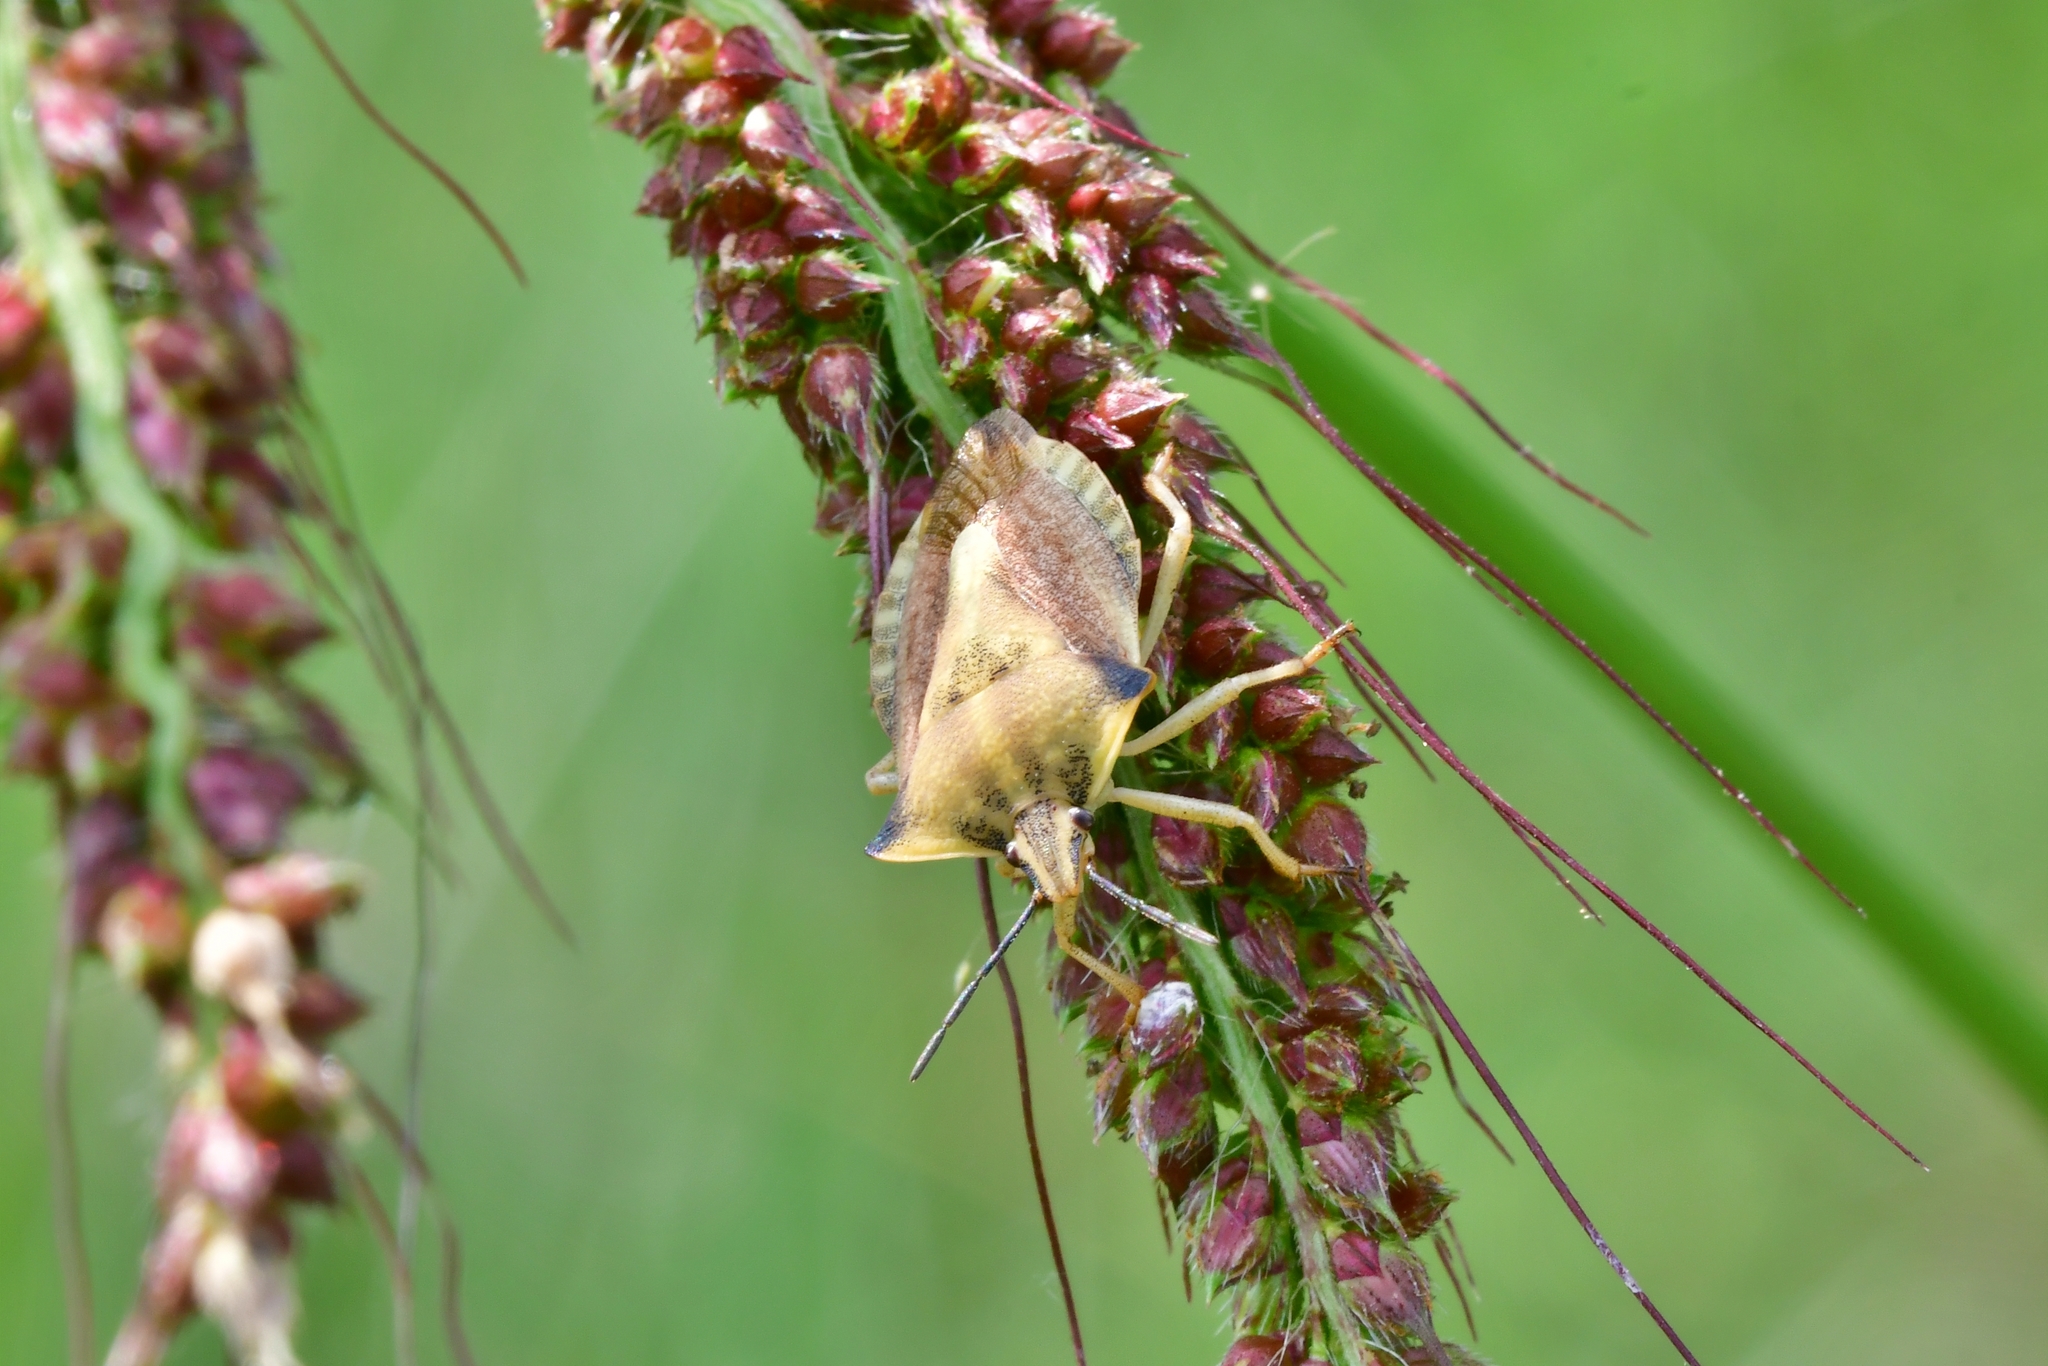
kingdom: Animalia
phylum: Arthropoda
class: Insecta
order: Hemiptera
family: Pentatomidae
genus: Carpocoris
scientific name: Carpocoris fuscispinus
